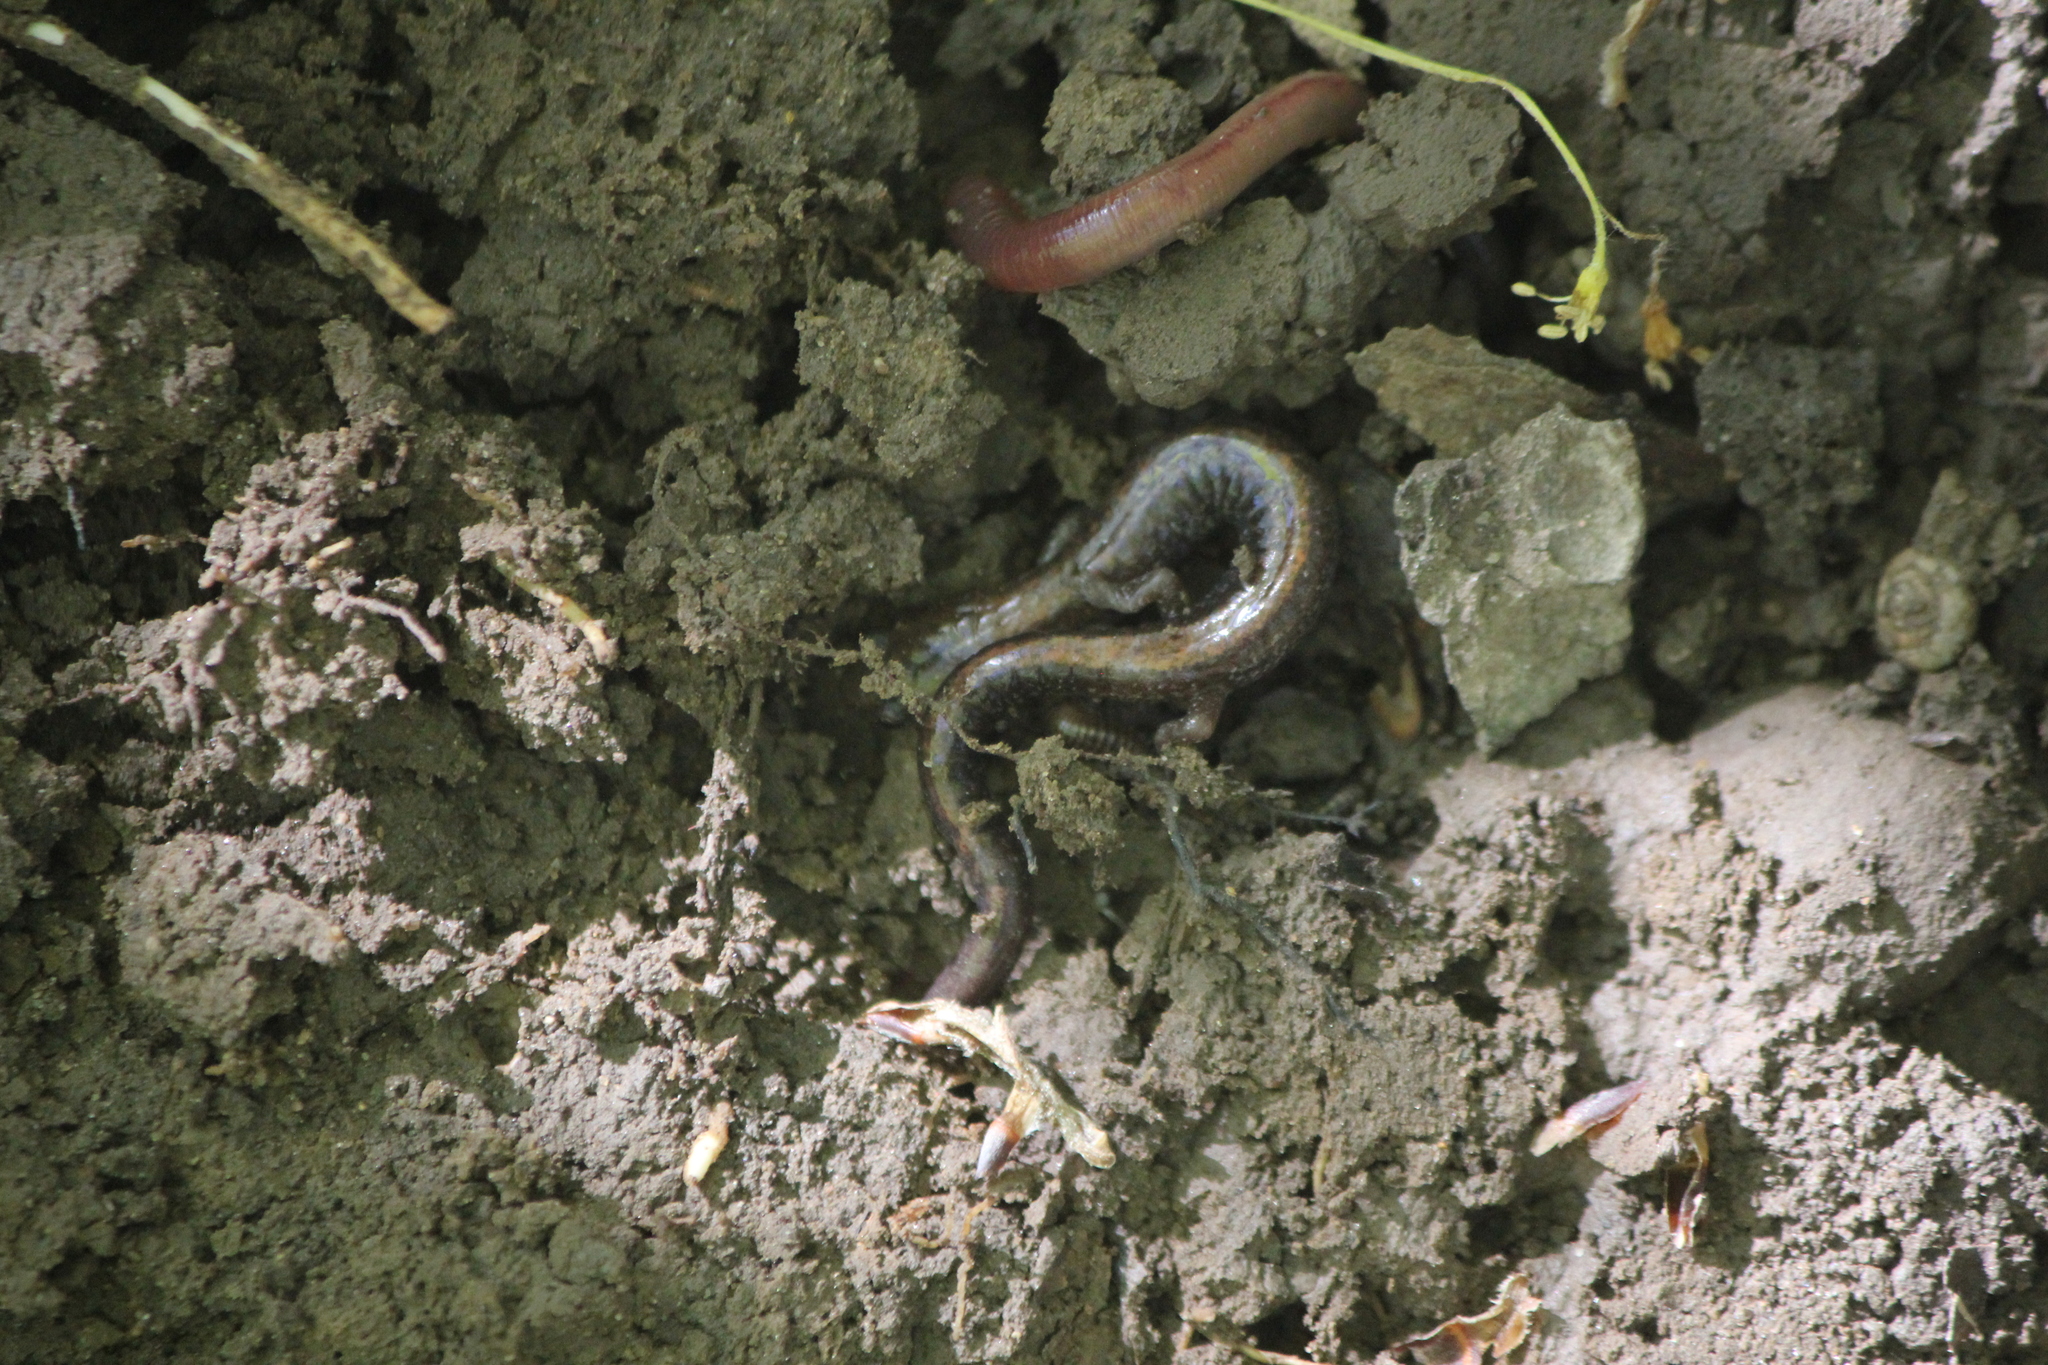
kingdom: Animalia
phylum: Chordata
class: Amphibia
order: Caudata
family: Plethodontidae
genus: Plethodon
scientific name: Plethodon cinereus
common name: Redback salamander
